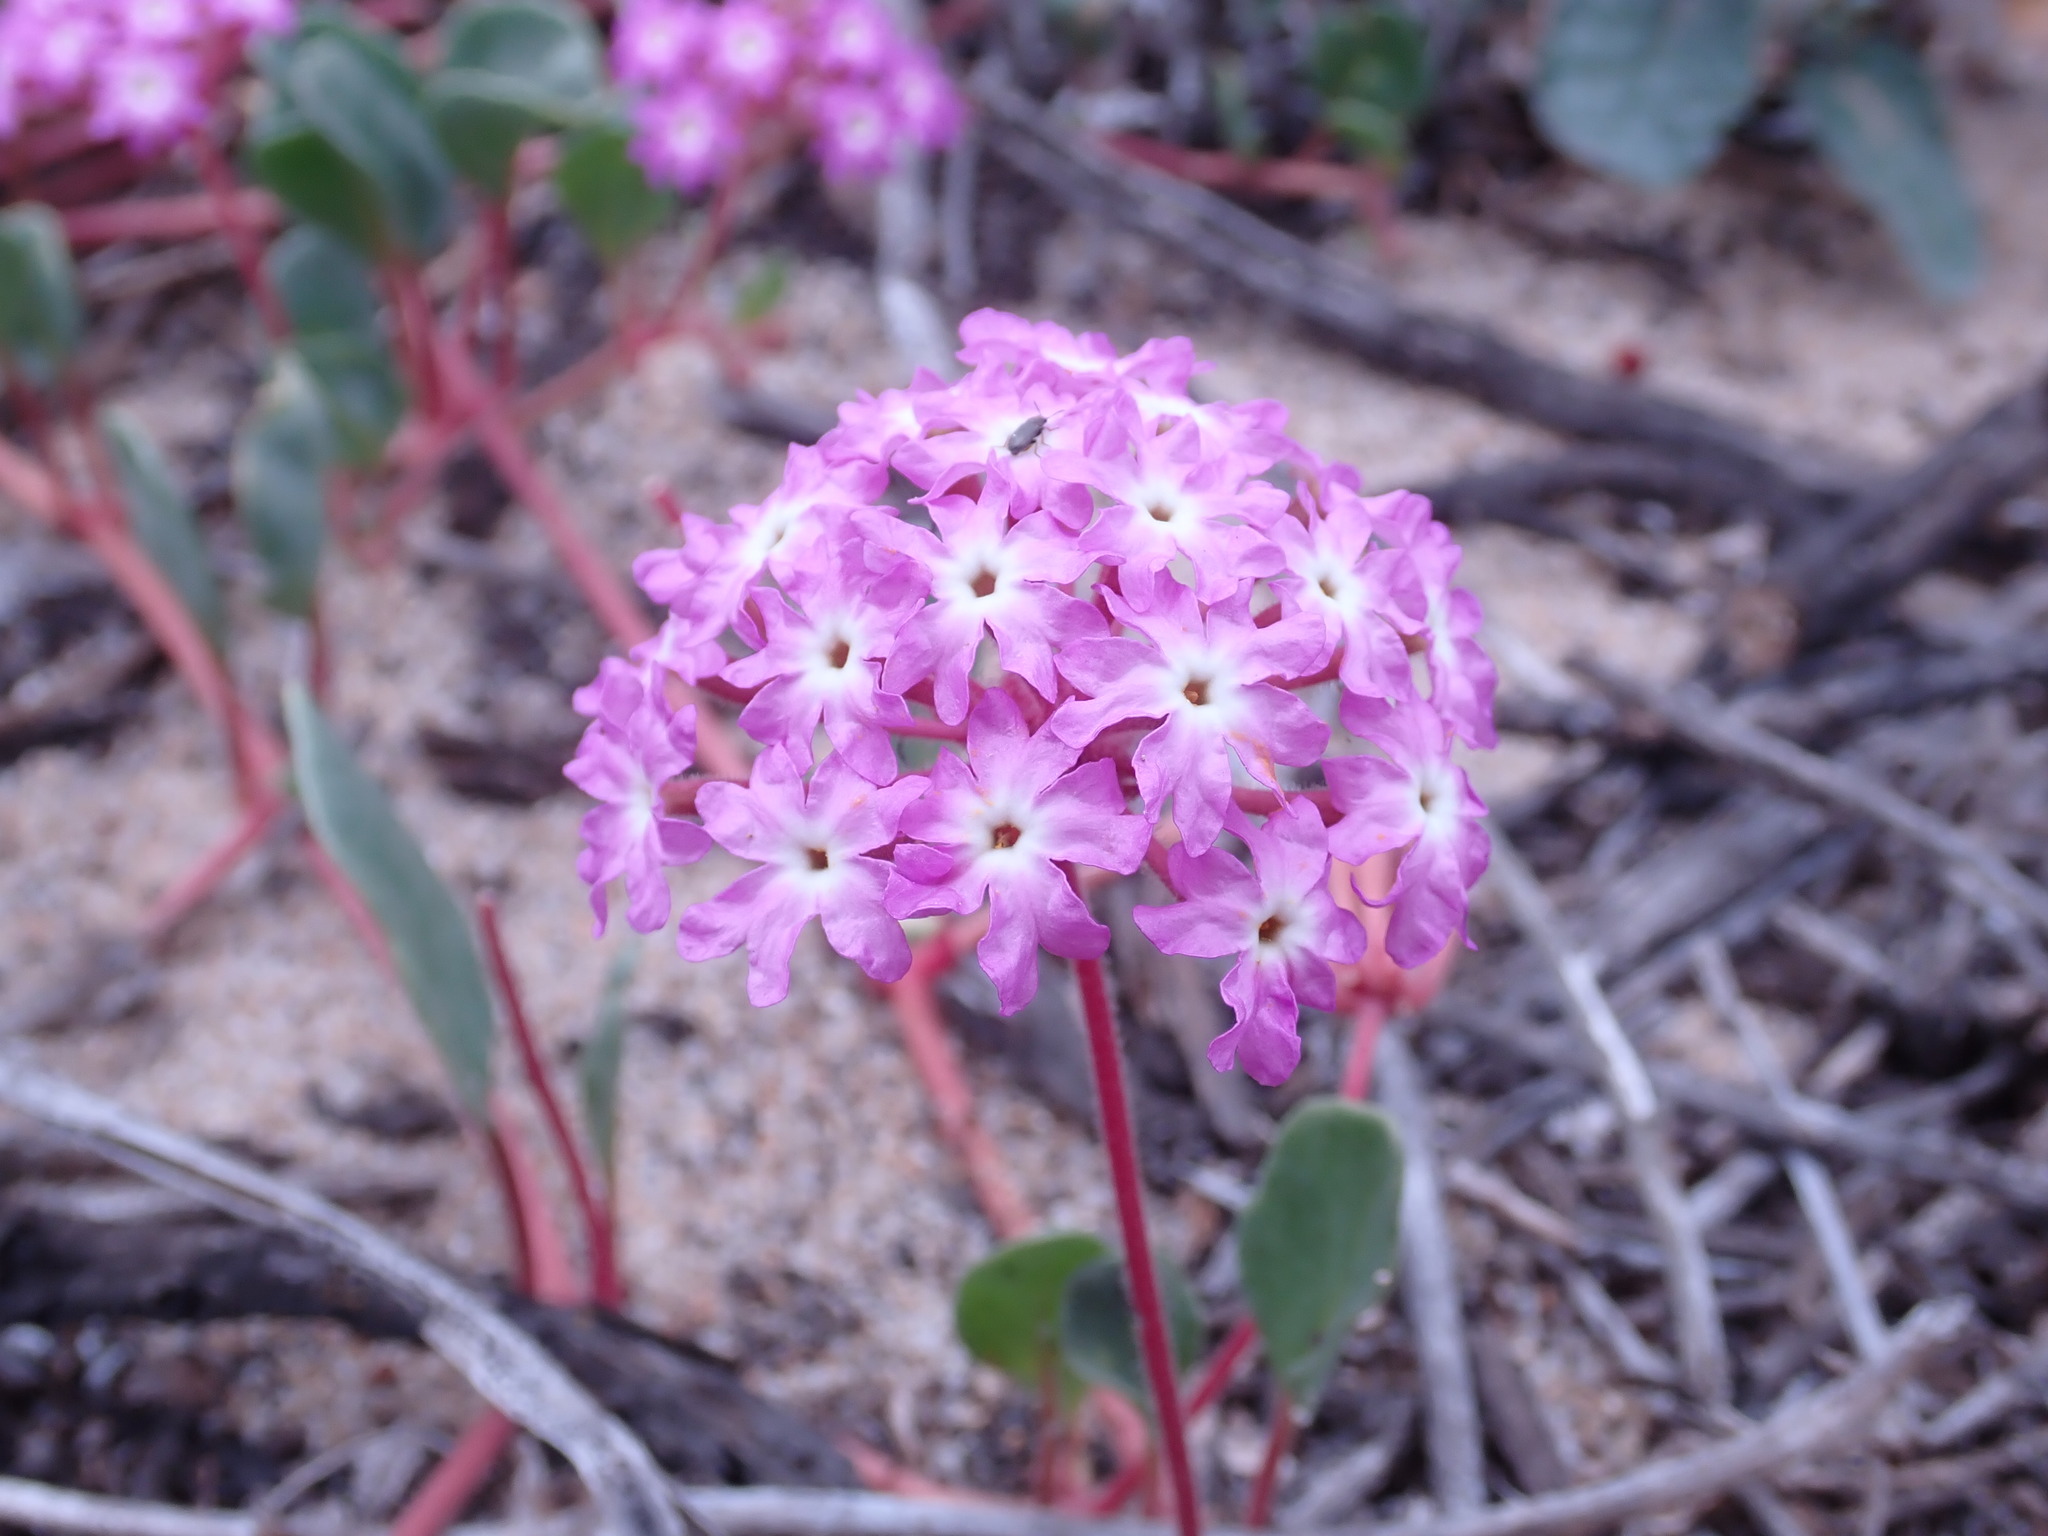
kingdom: Plantae
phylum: Tracheophyta
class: Magnoliopsida
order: Caryophyllales
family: Nyctaginaceae
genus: Abronia
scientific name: Abronia umbellata
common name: Sand-verbena
